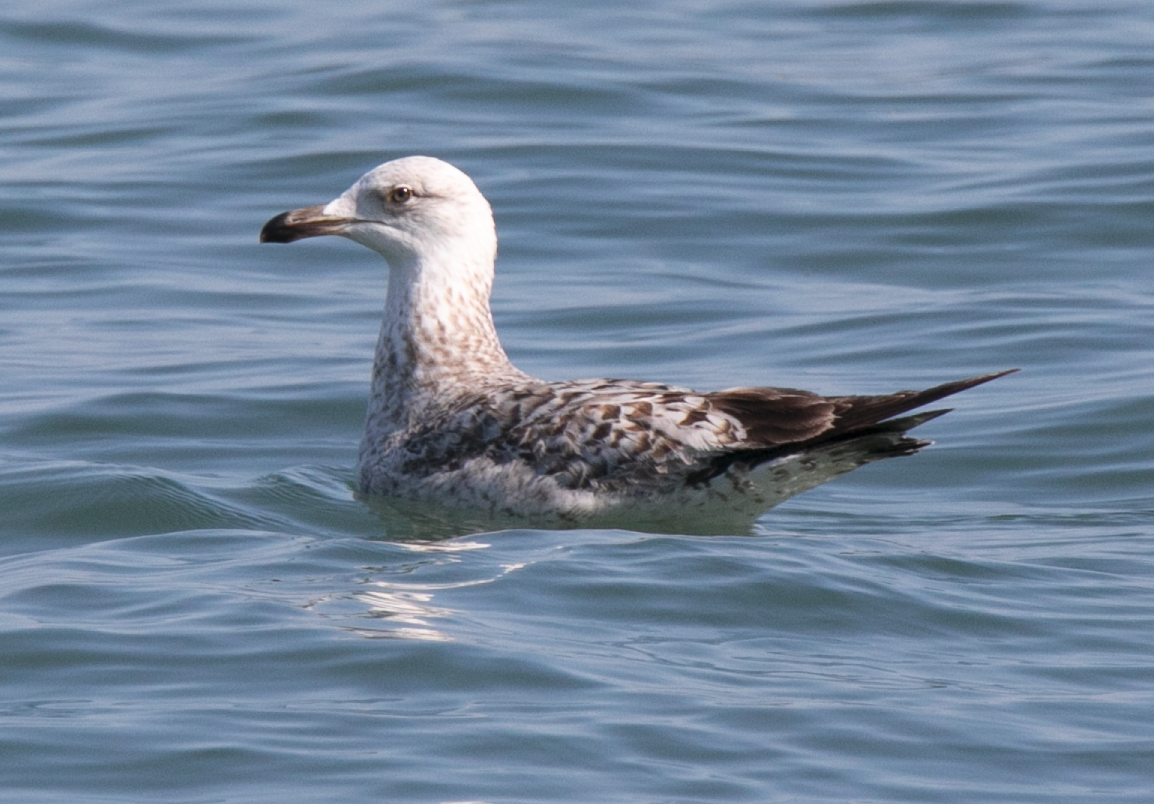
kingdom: Animalia
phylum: Chordata
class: Aves
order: Charadriiformes
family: Laridae
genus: Larus
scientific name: Larus michahellis
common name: Yellow-legged gull
